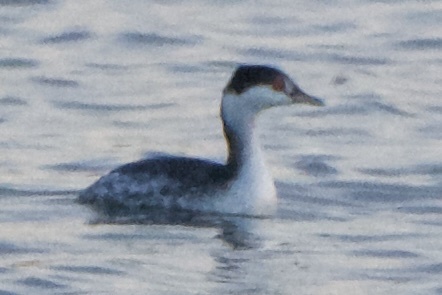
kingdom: Animalia
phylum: Chordata
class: Aves
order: Podicipediformes
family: Podicipedidae
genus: Podiceps
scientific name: Podiceps auritus
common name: Horned grebe
